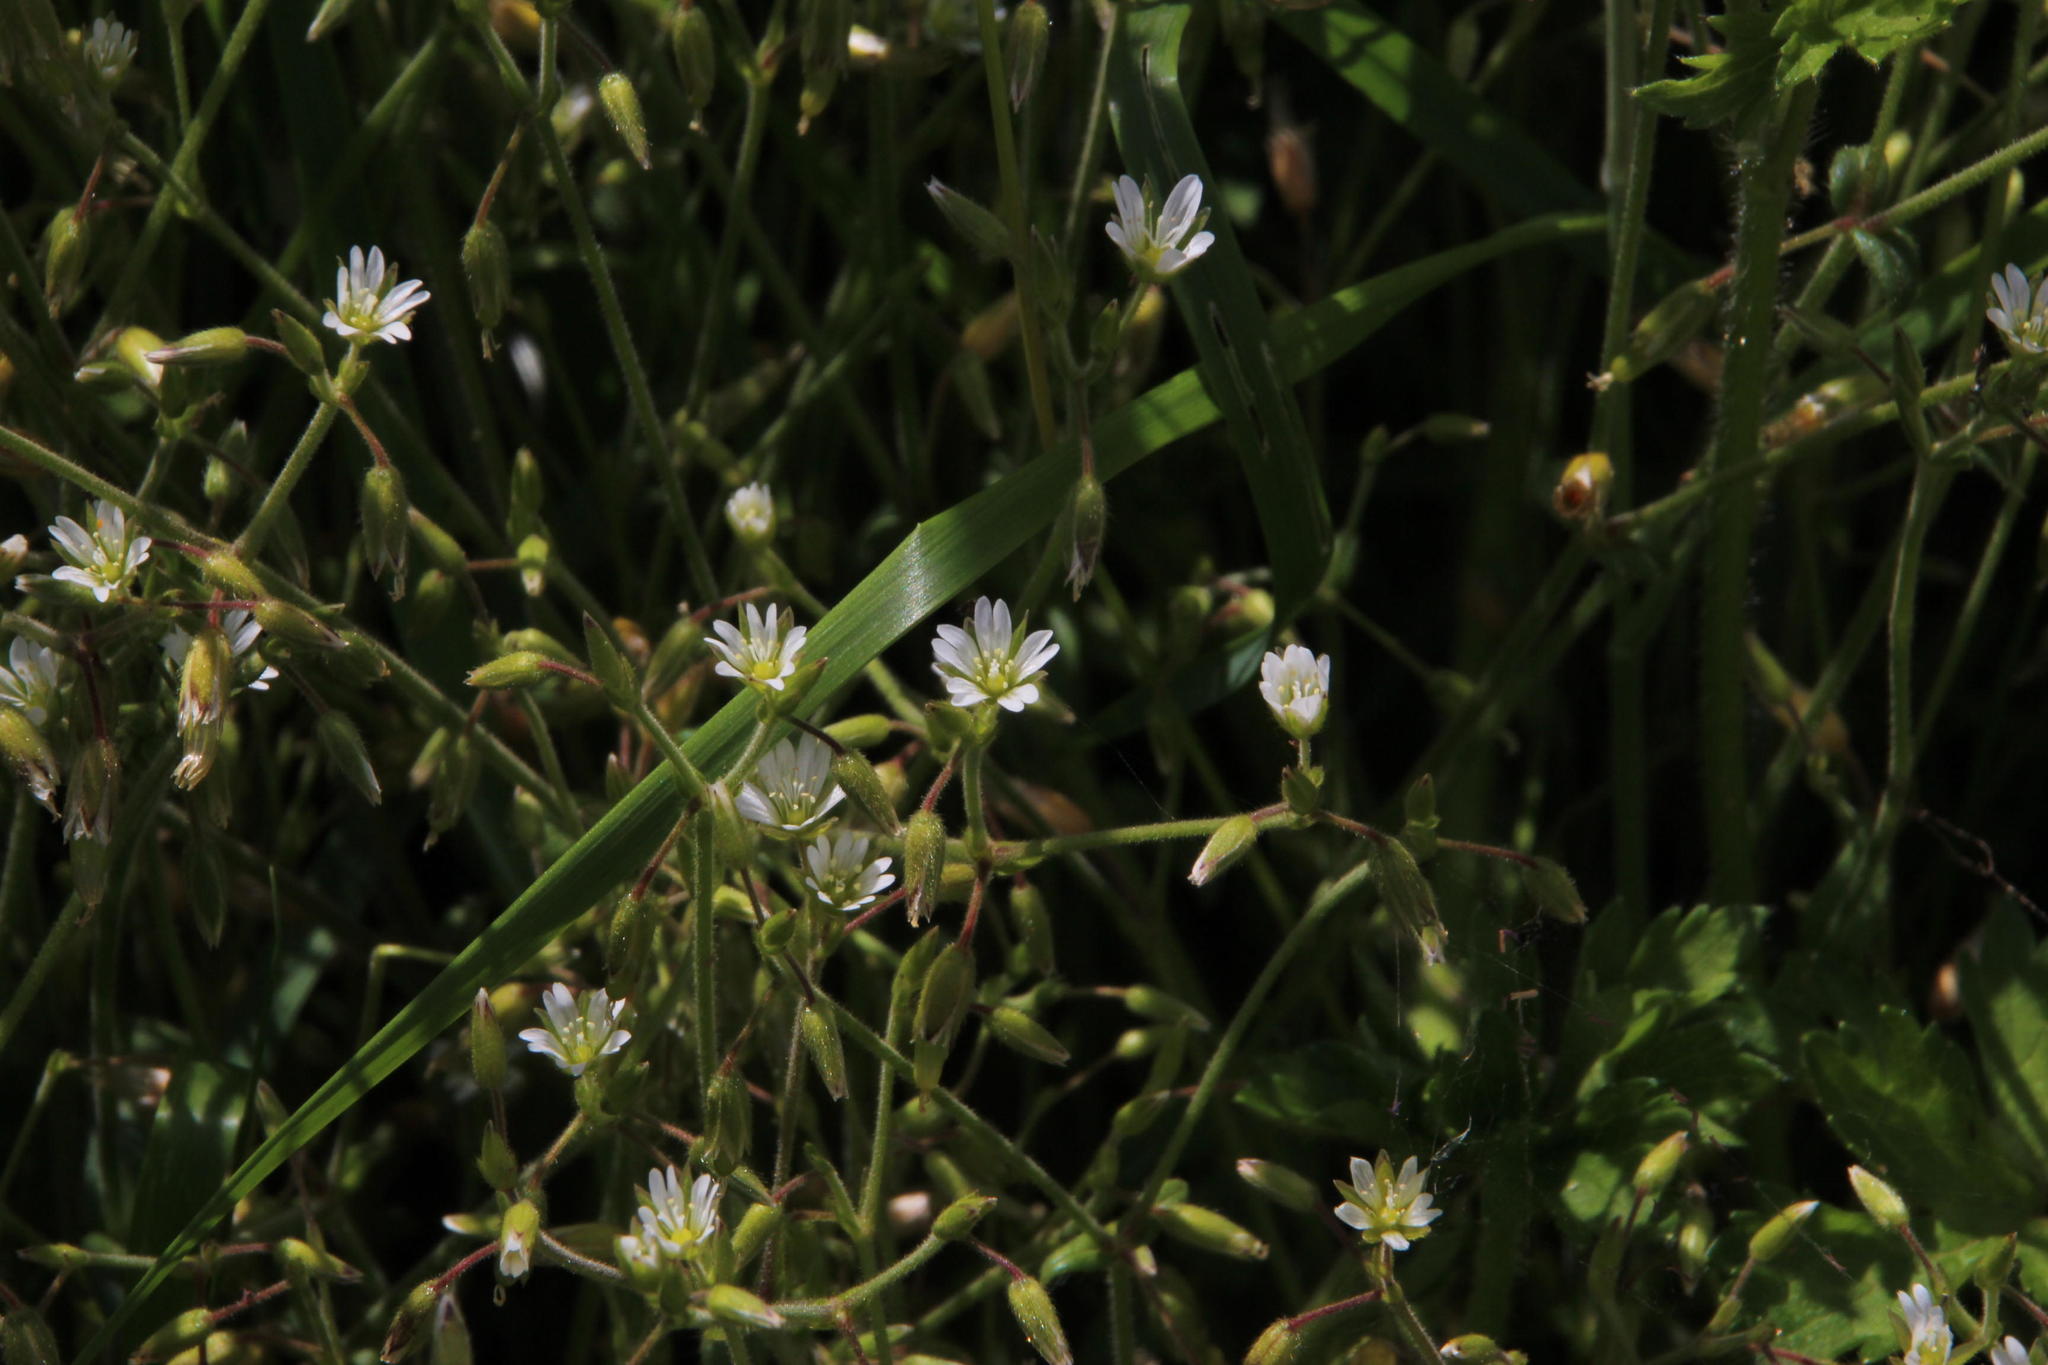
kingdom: Plantae
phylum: Tracheophyta
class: Magnoliopsida
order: Caryophyllales
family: Caryophyllaceae
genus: Stellaria
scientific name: Stellaria media
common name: Common chickweed
